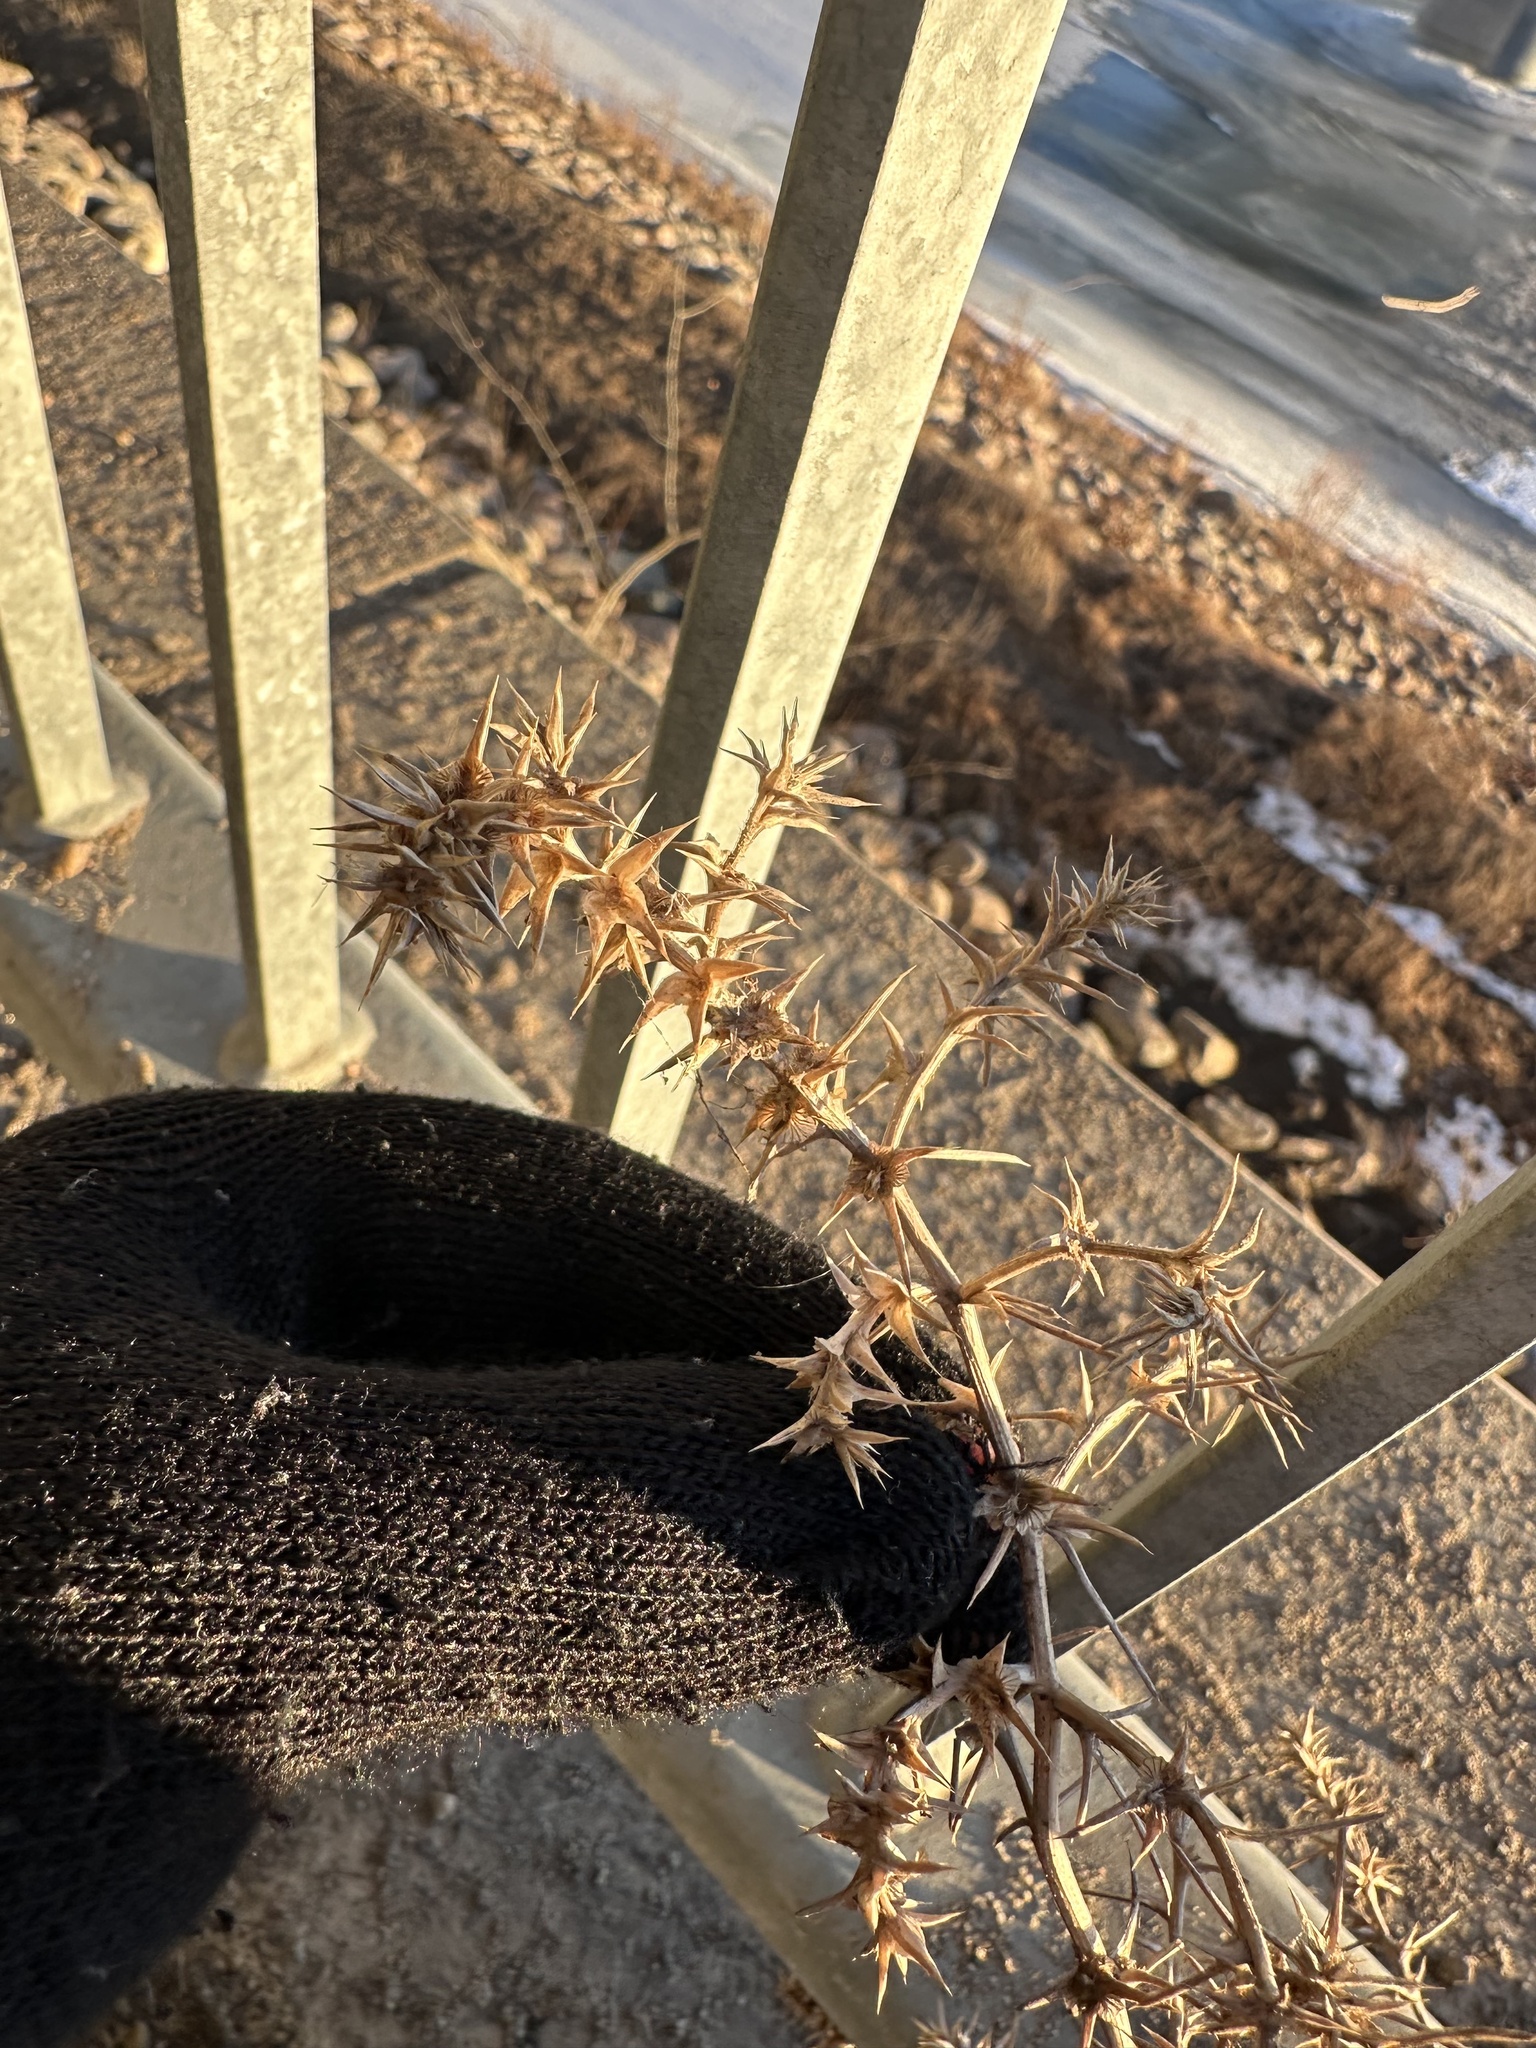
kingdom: Plantae
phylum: Tracheophyta
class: Magnoliopsida
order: Caryophyllales
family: Amaranthaceae
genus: Salsola
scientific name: Salsola tragus
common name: Prickly russian thistle
